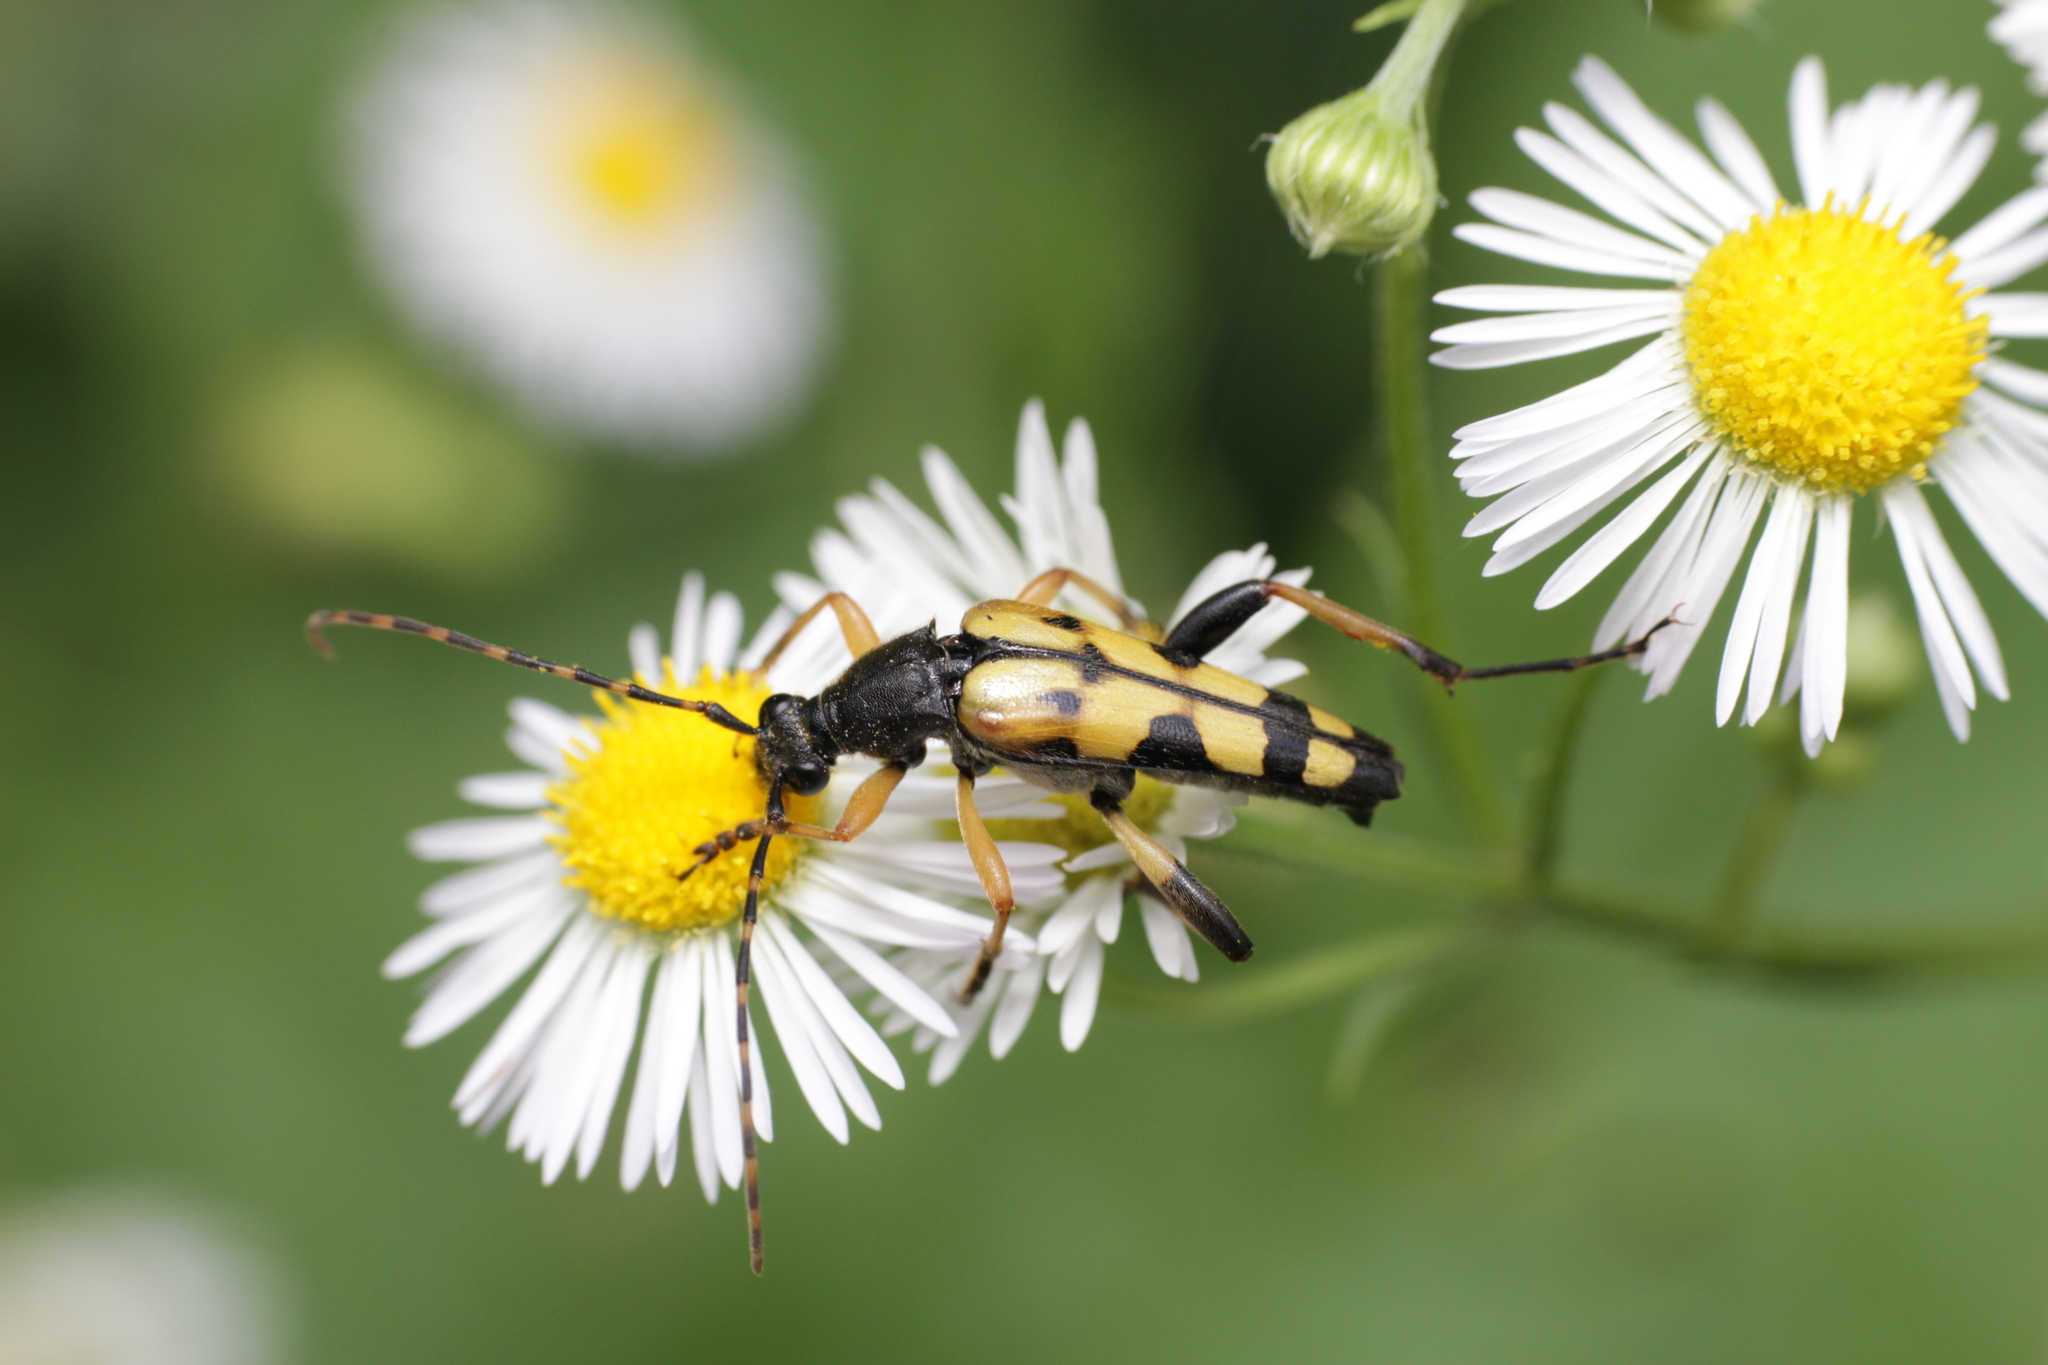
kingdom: Animalia
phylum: Arthropoda
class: Insecta
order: Coleoptera
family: Cerambycidae
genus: Rutpela
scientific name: Rutpela maculata
